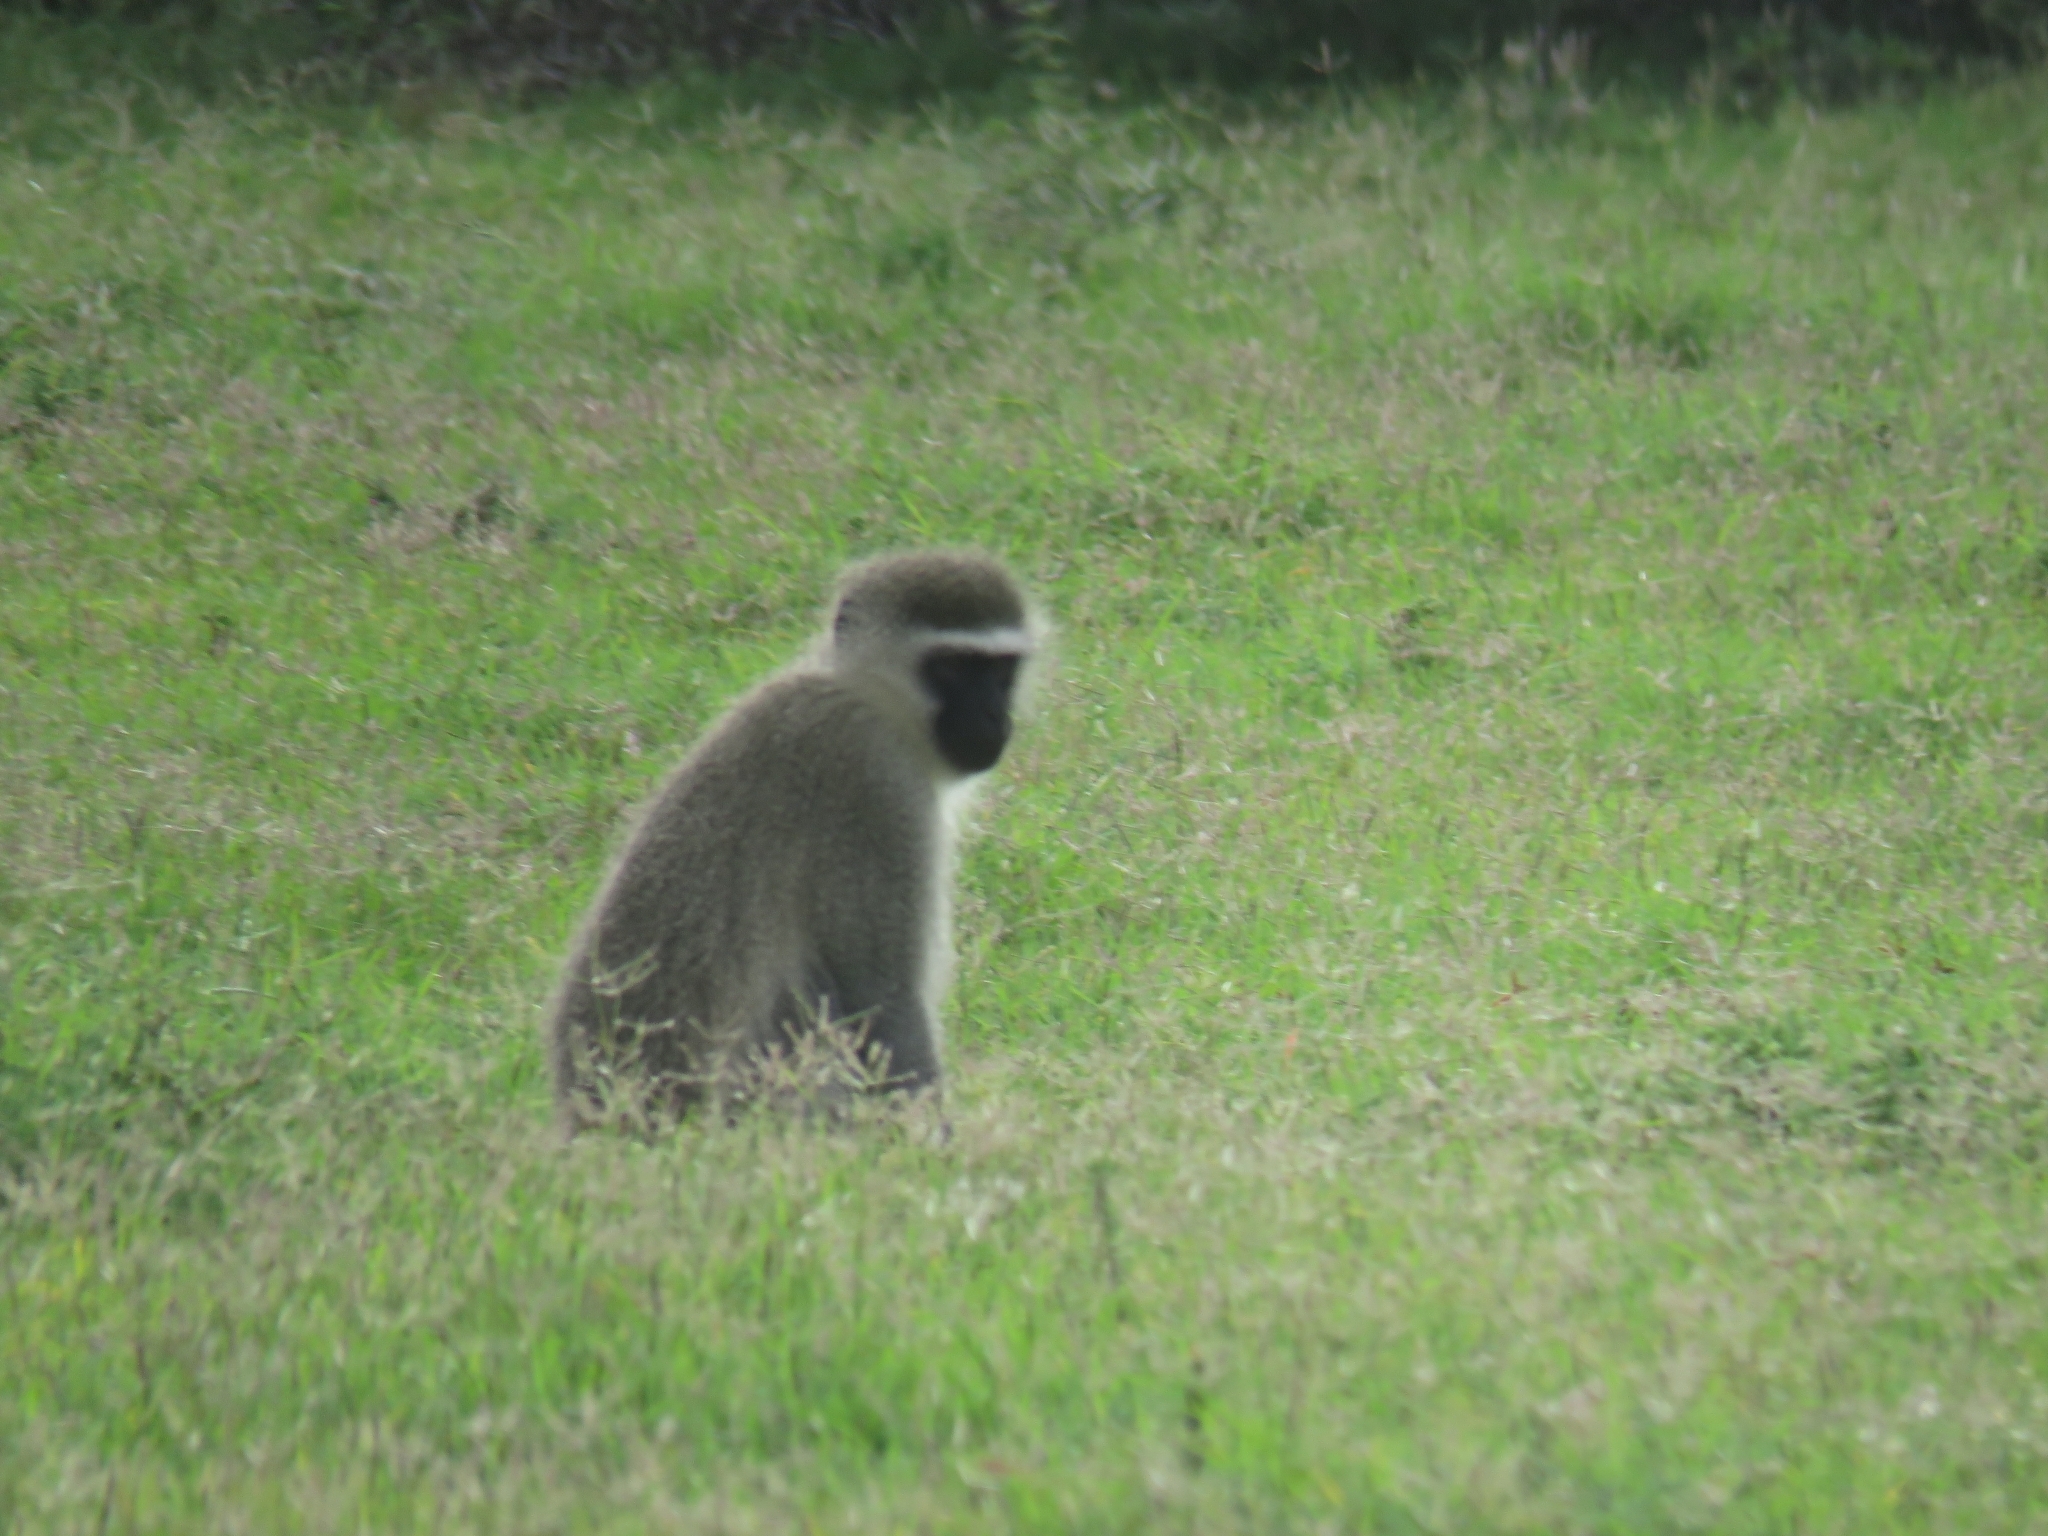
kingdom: Animalia
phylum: Chordata
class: Mammalia
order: Primates
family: Cercopithecidae
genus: Chlorocebus
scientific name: Chlorocebus pygerythrus
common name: Vervet monkey
